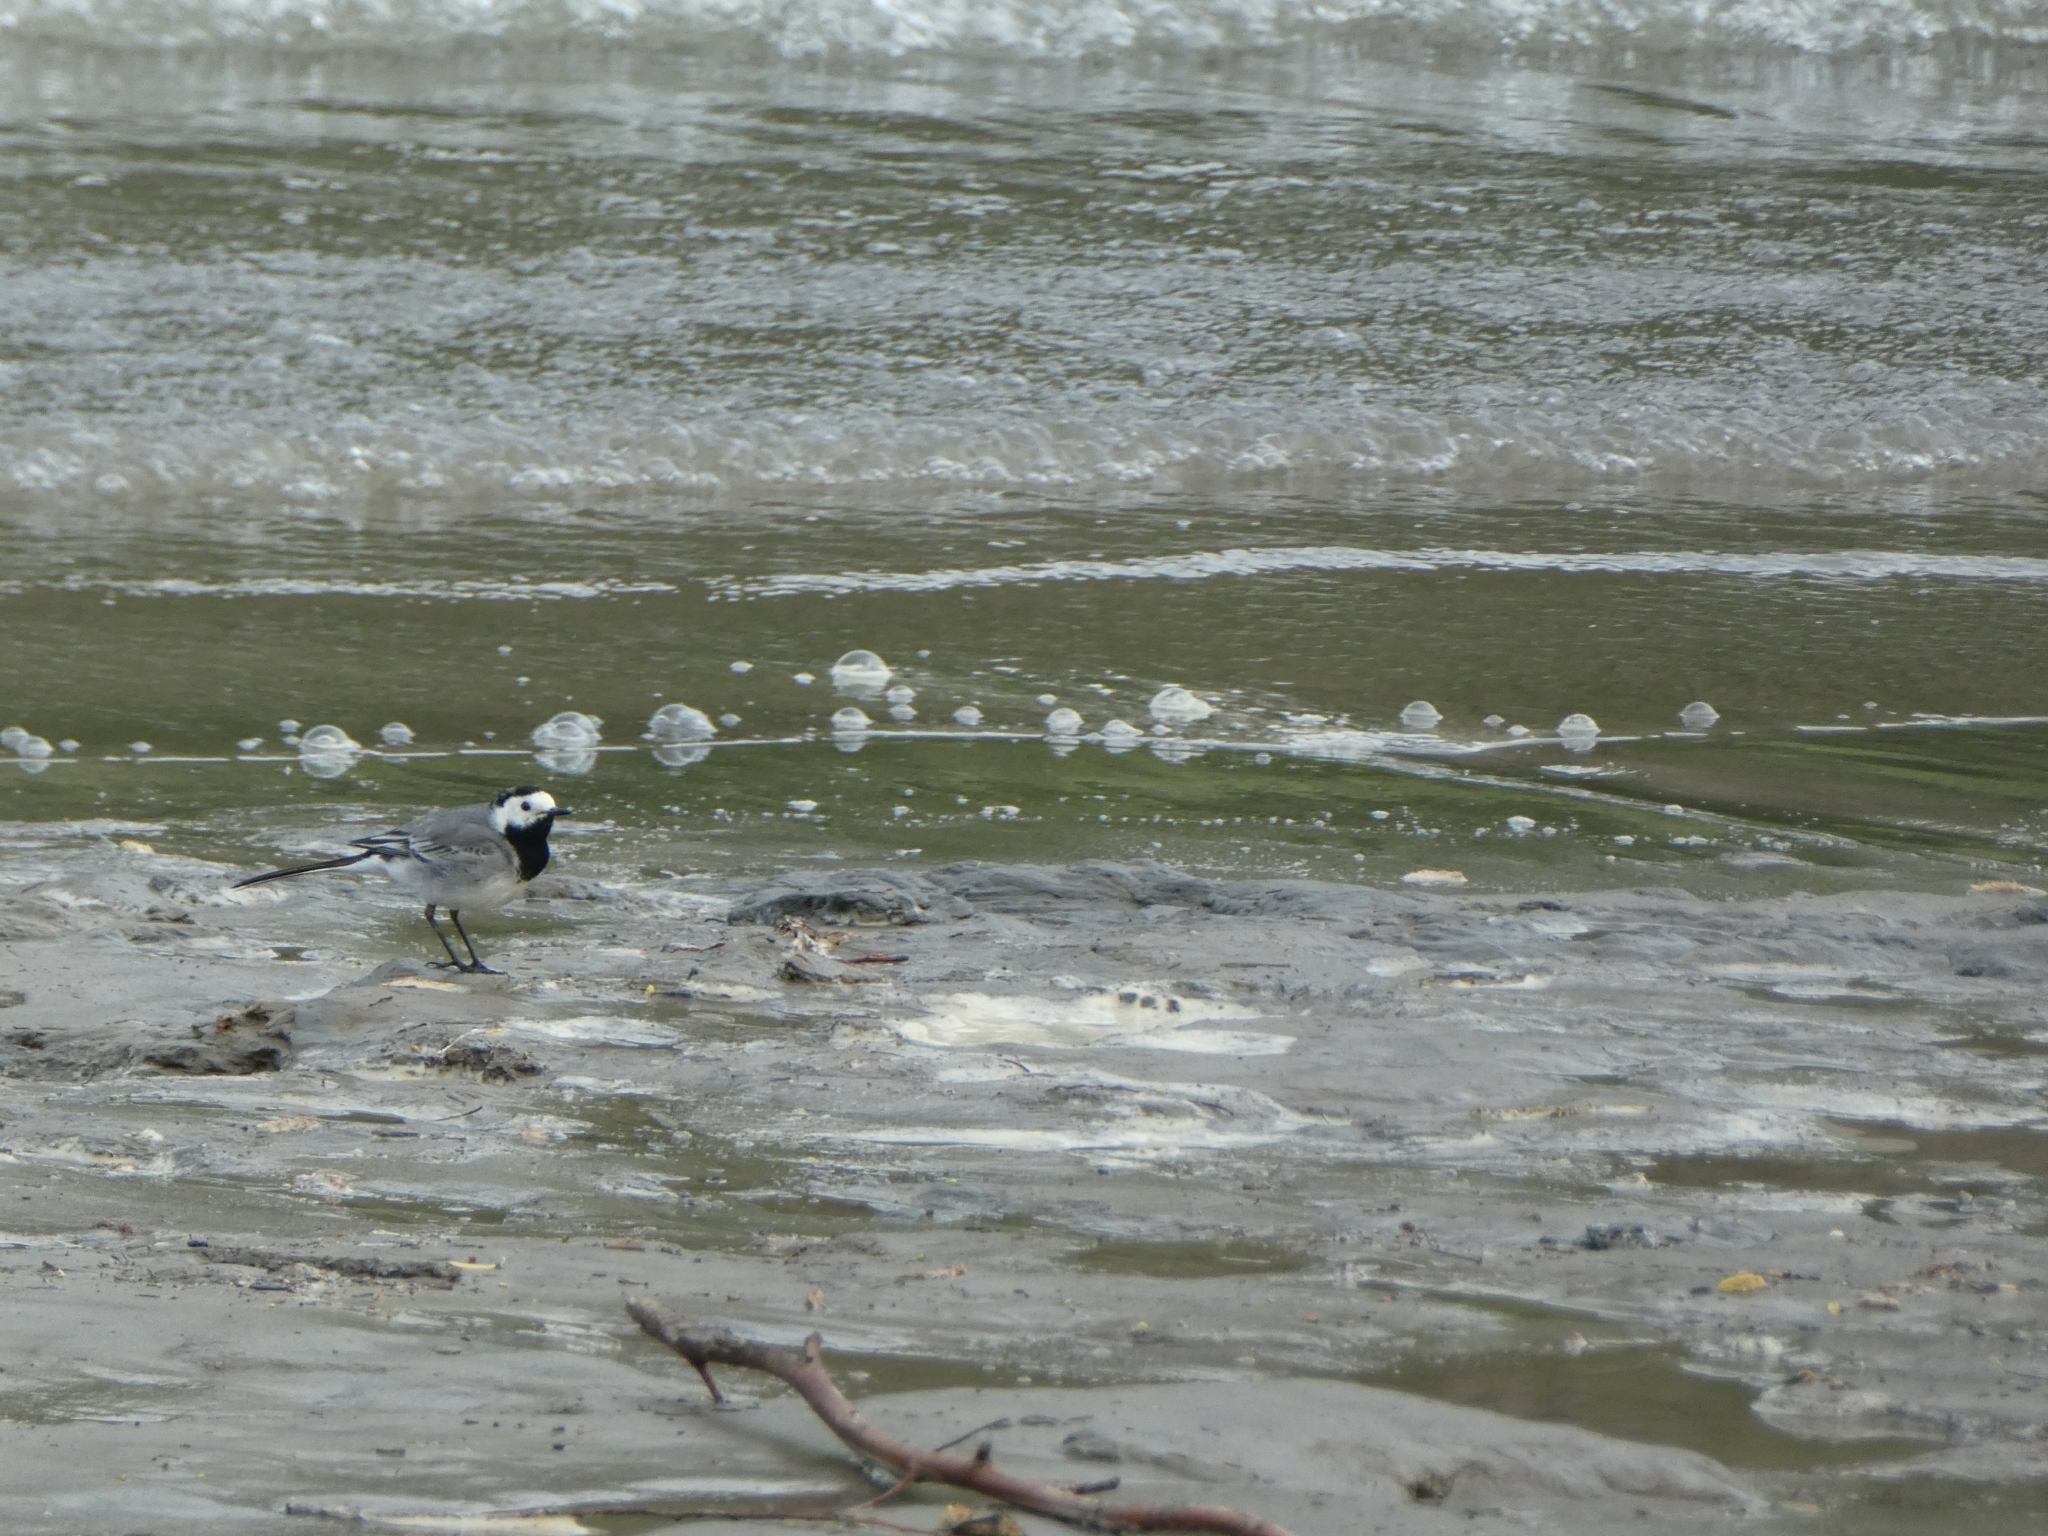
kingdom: Animalia
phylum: Chordata
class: Aves
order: Passeriformes
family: Motacillidae
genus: Motacilla
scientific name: Motacilla alba
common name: White wagtail
